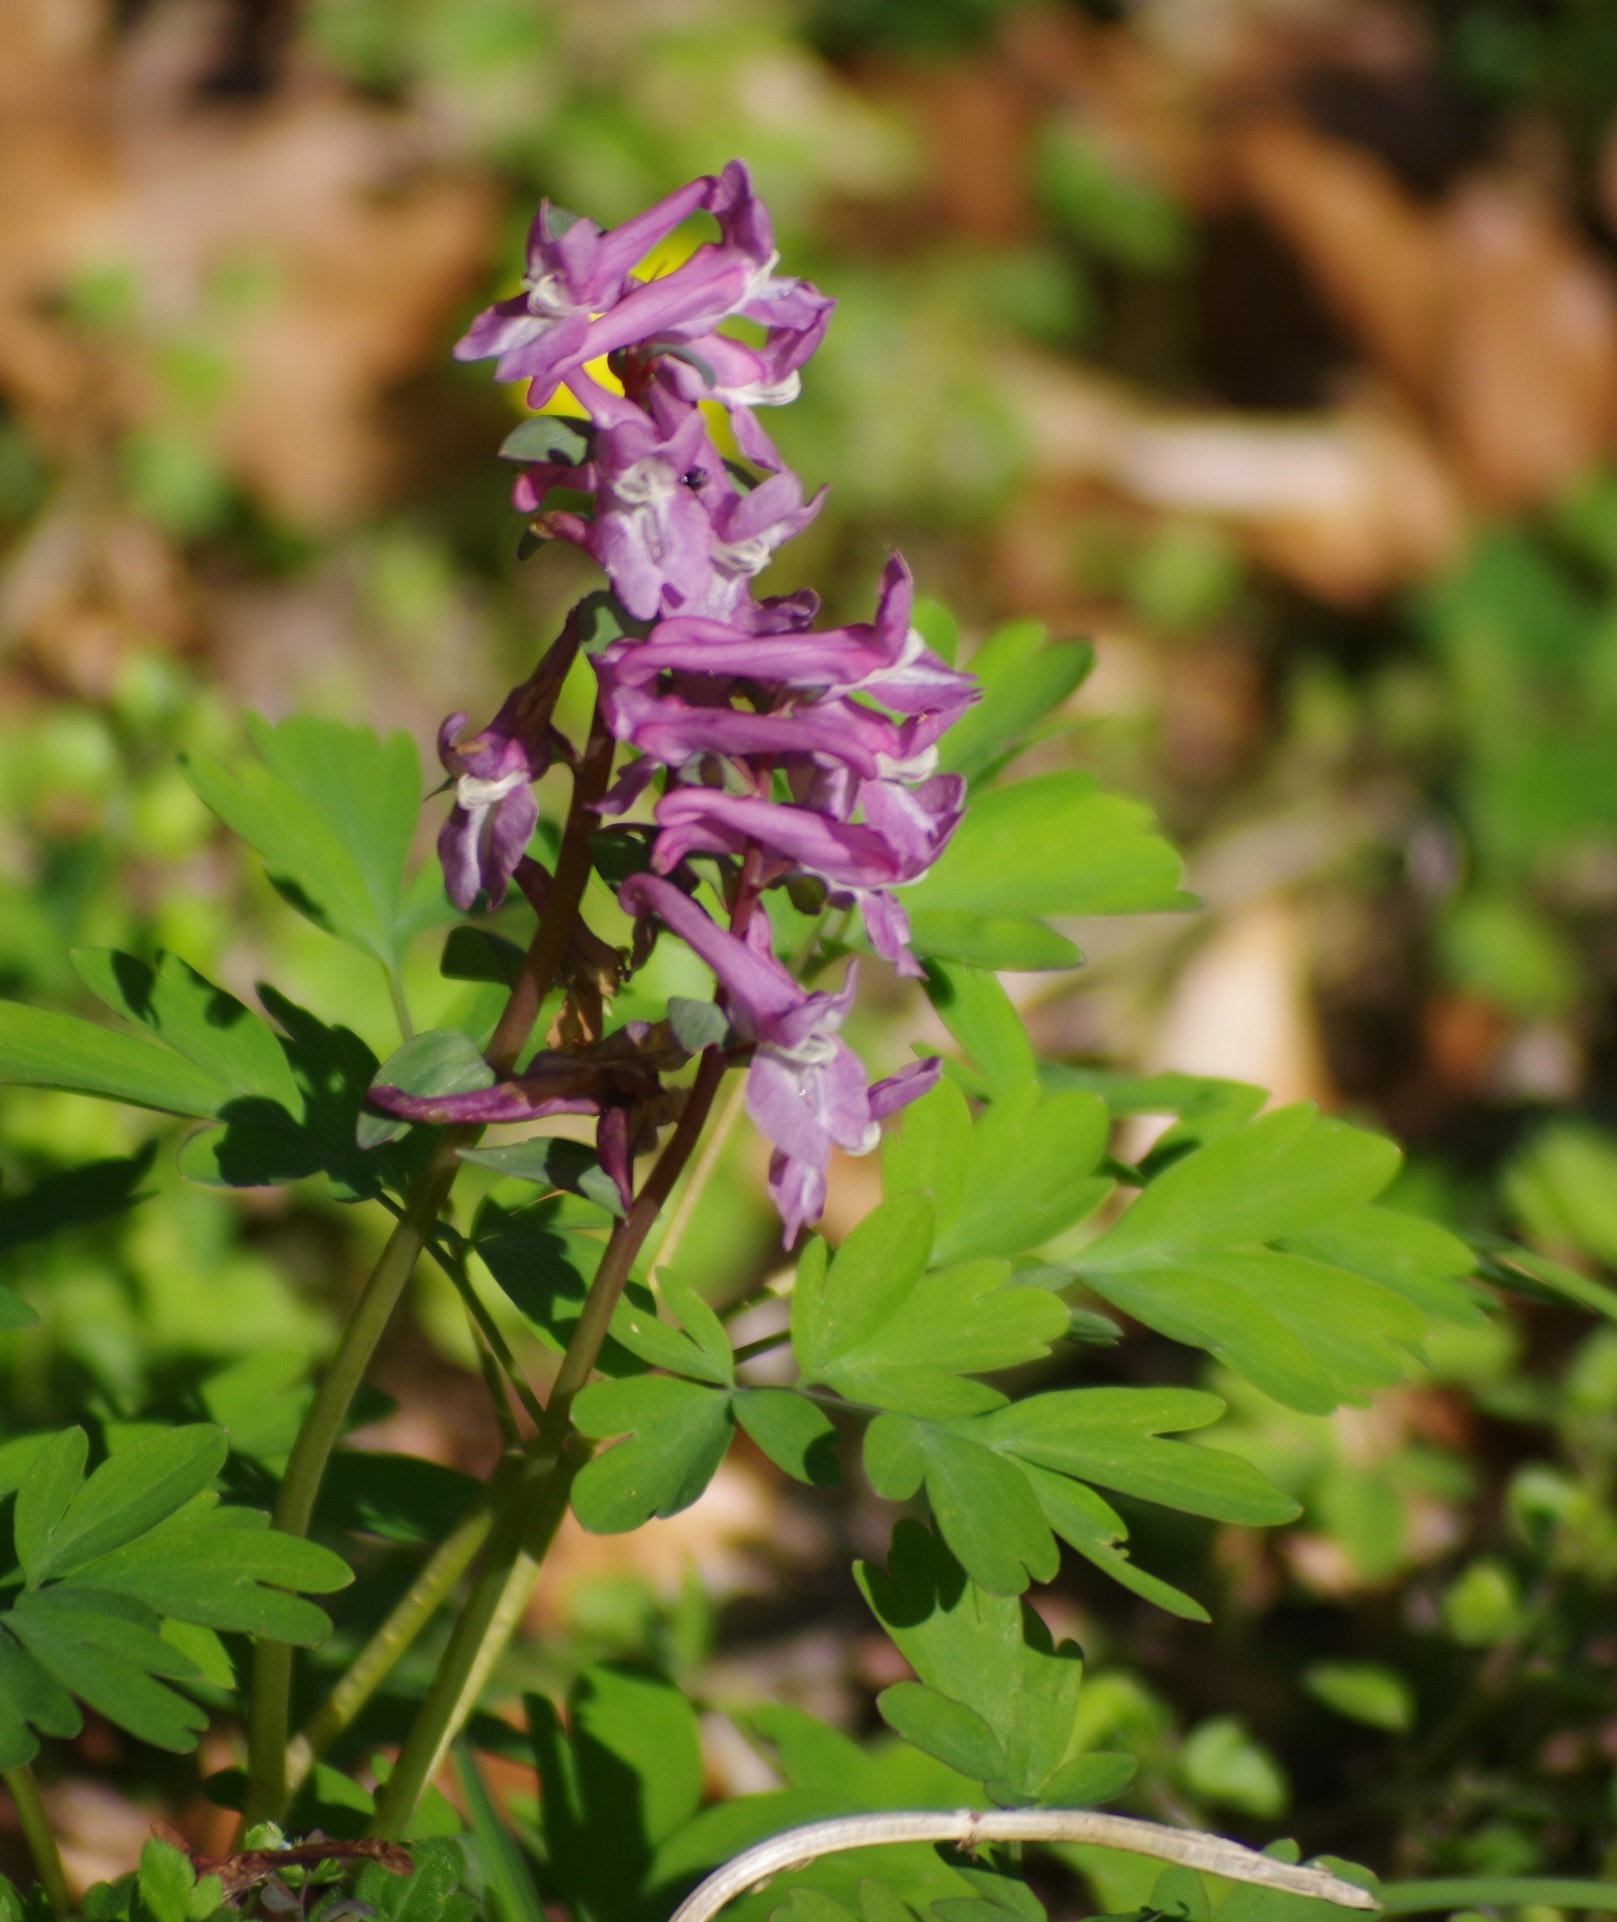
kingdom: Plantae
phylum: Tracheophyta
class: Magnoliopsida
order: Ranunculales
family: Papaveraceae
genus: Corydalis
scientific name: Corydalis cava
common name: Hollowroot
